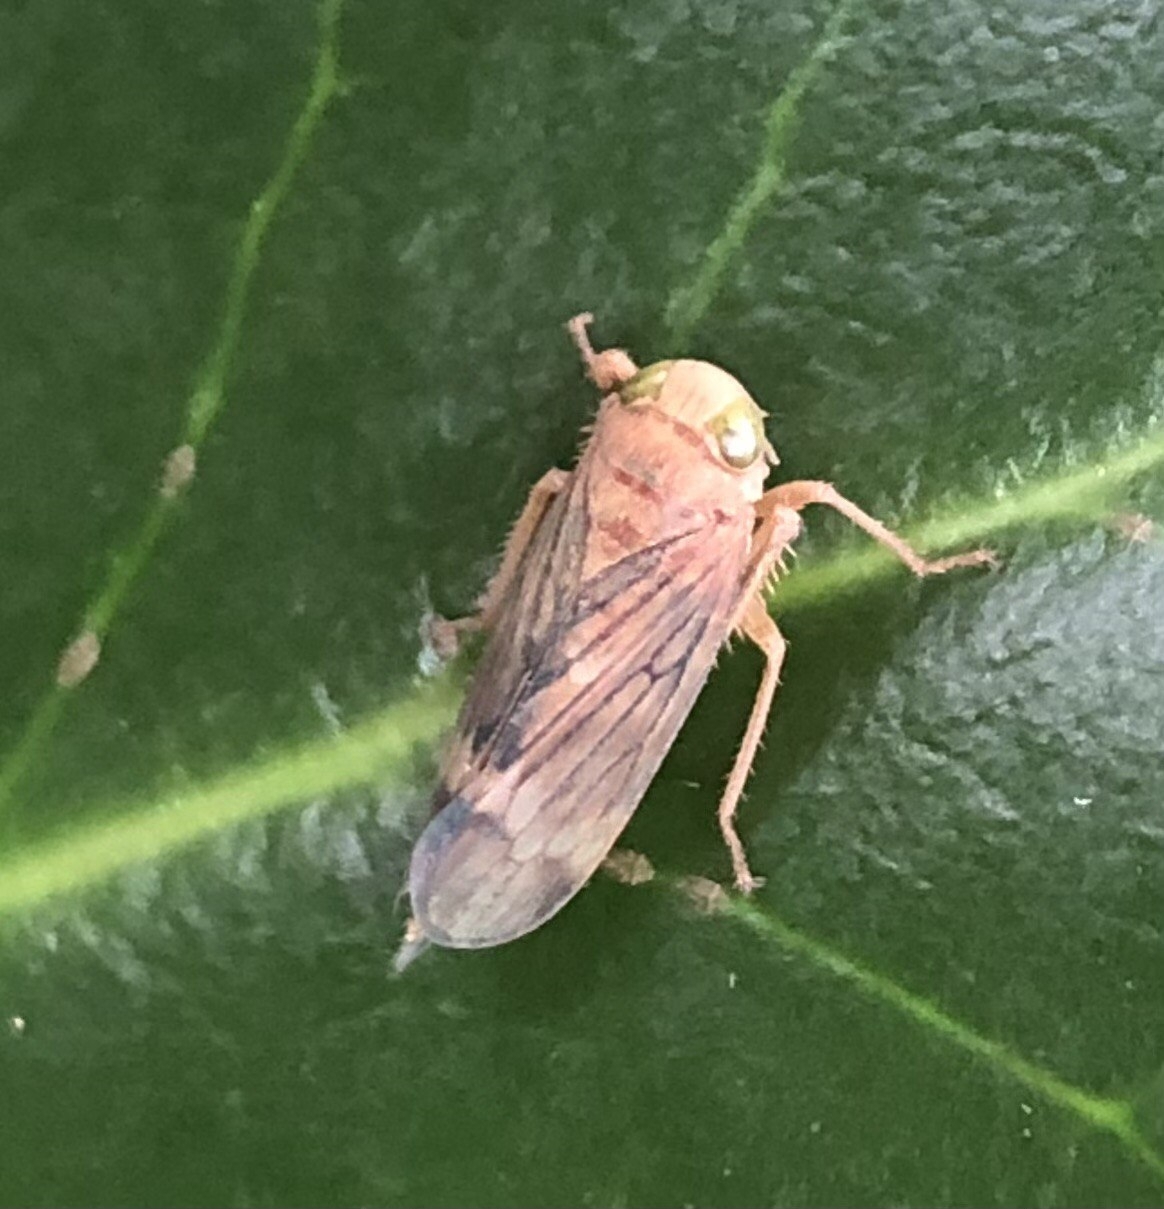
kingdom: Animalia
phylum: Arthropoda
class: Insecta
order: Hemiptera
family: Cicadellidae
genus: Jikradia
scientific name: Jikradia olitoria
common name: Coppery leafhopper
